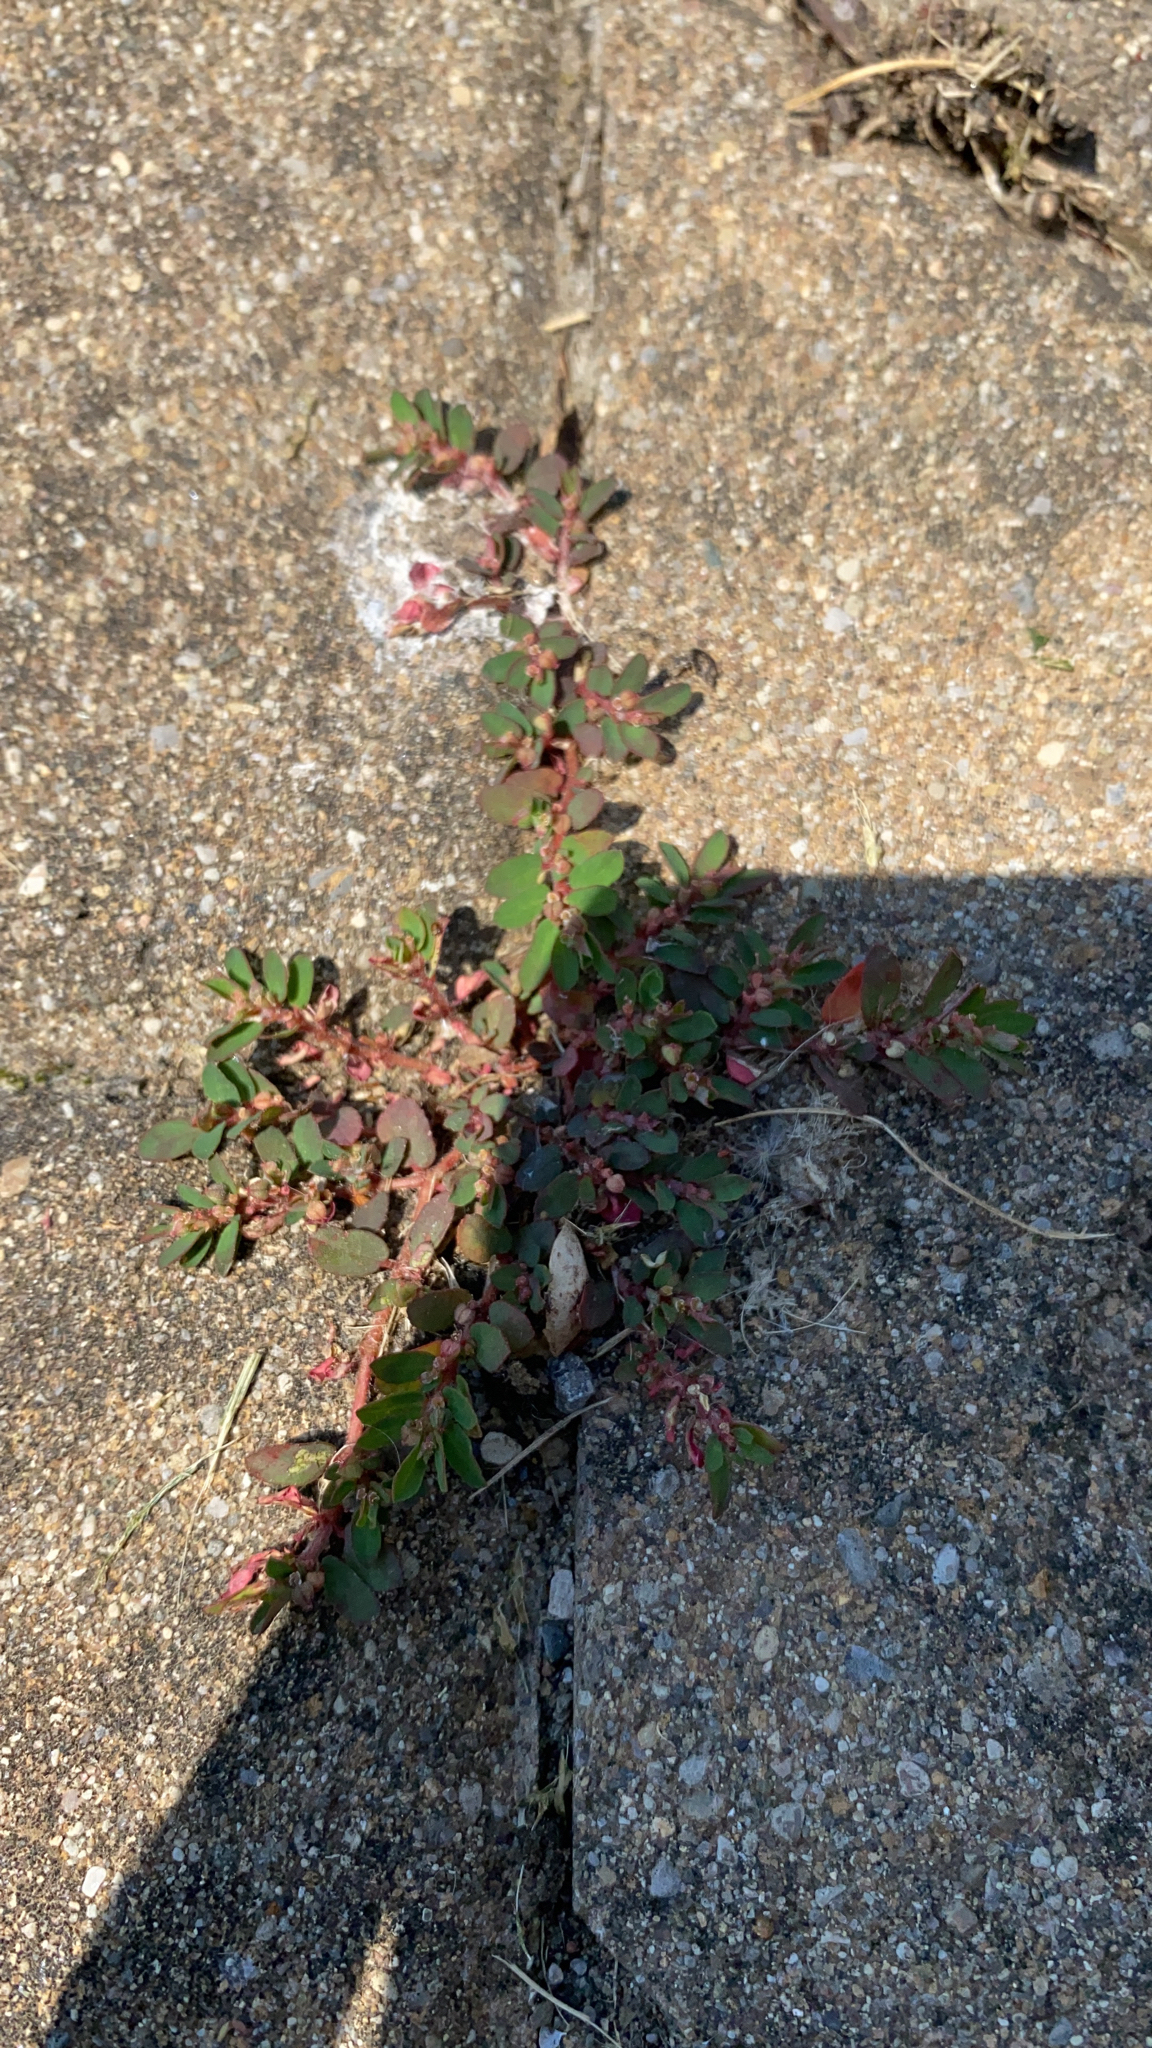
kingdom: Plantae
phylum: Tracheophyta
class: Magnoliopsida
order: Malpighiales
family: Euphorbiaceae
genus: Euphorbia
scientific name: Euphorbia maculata
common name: Spotted spurge
